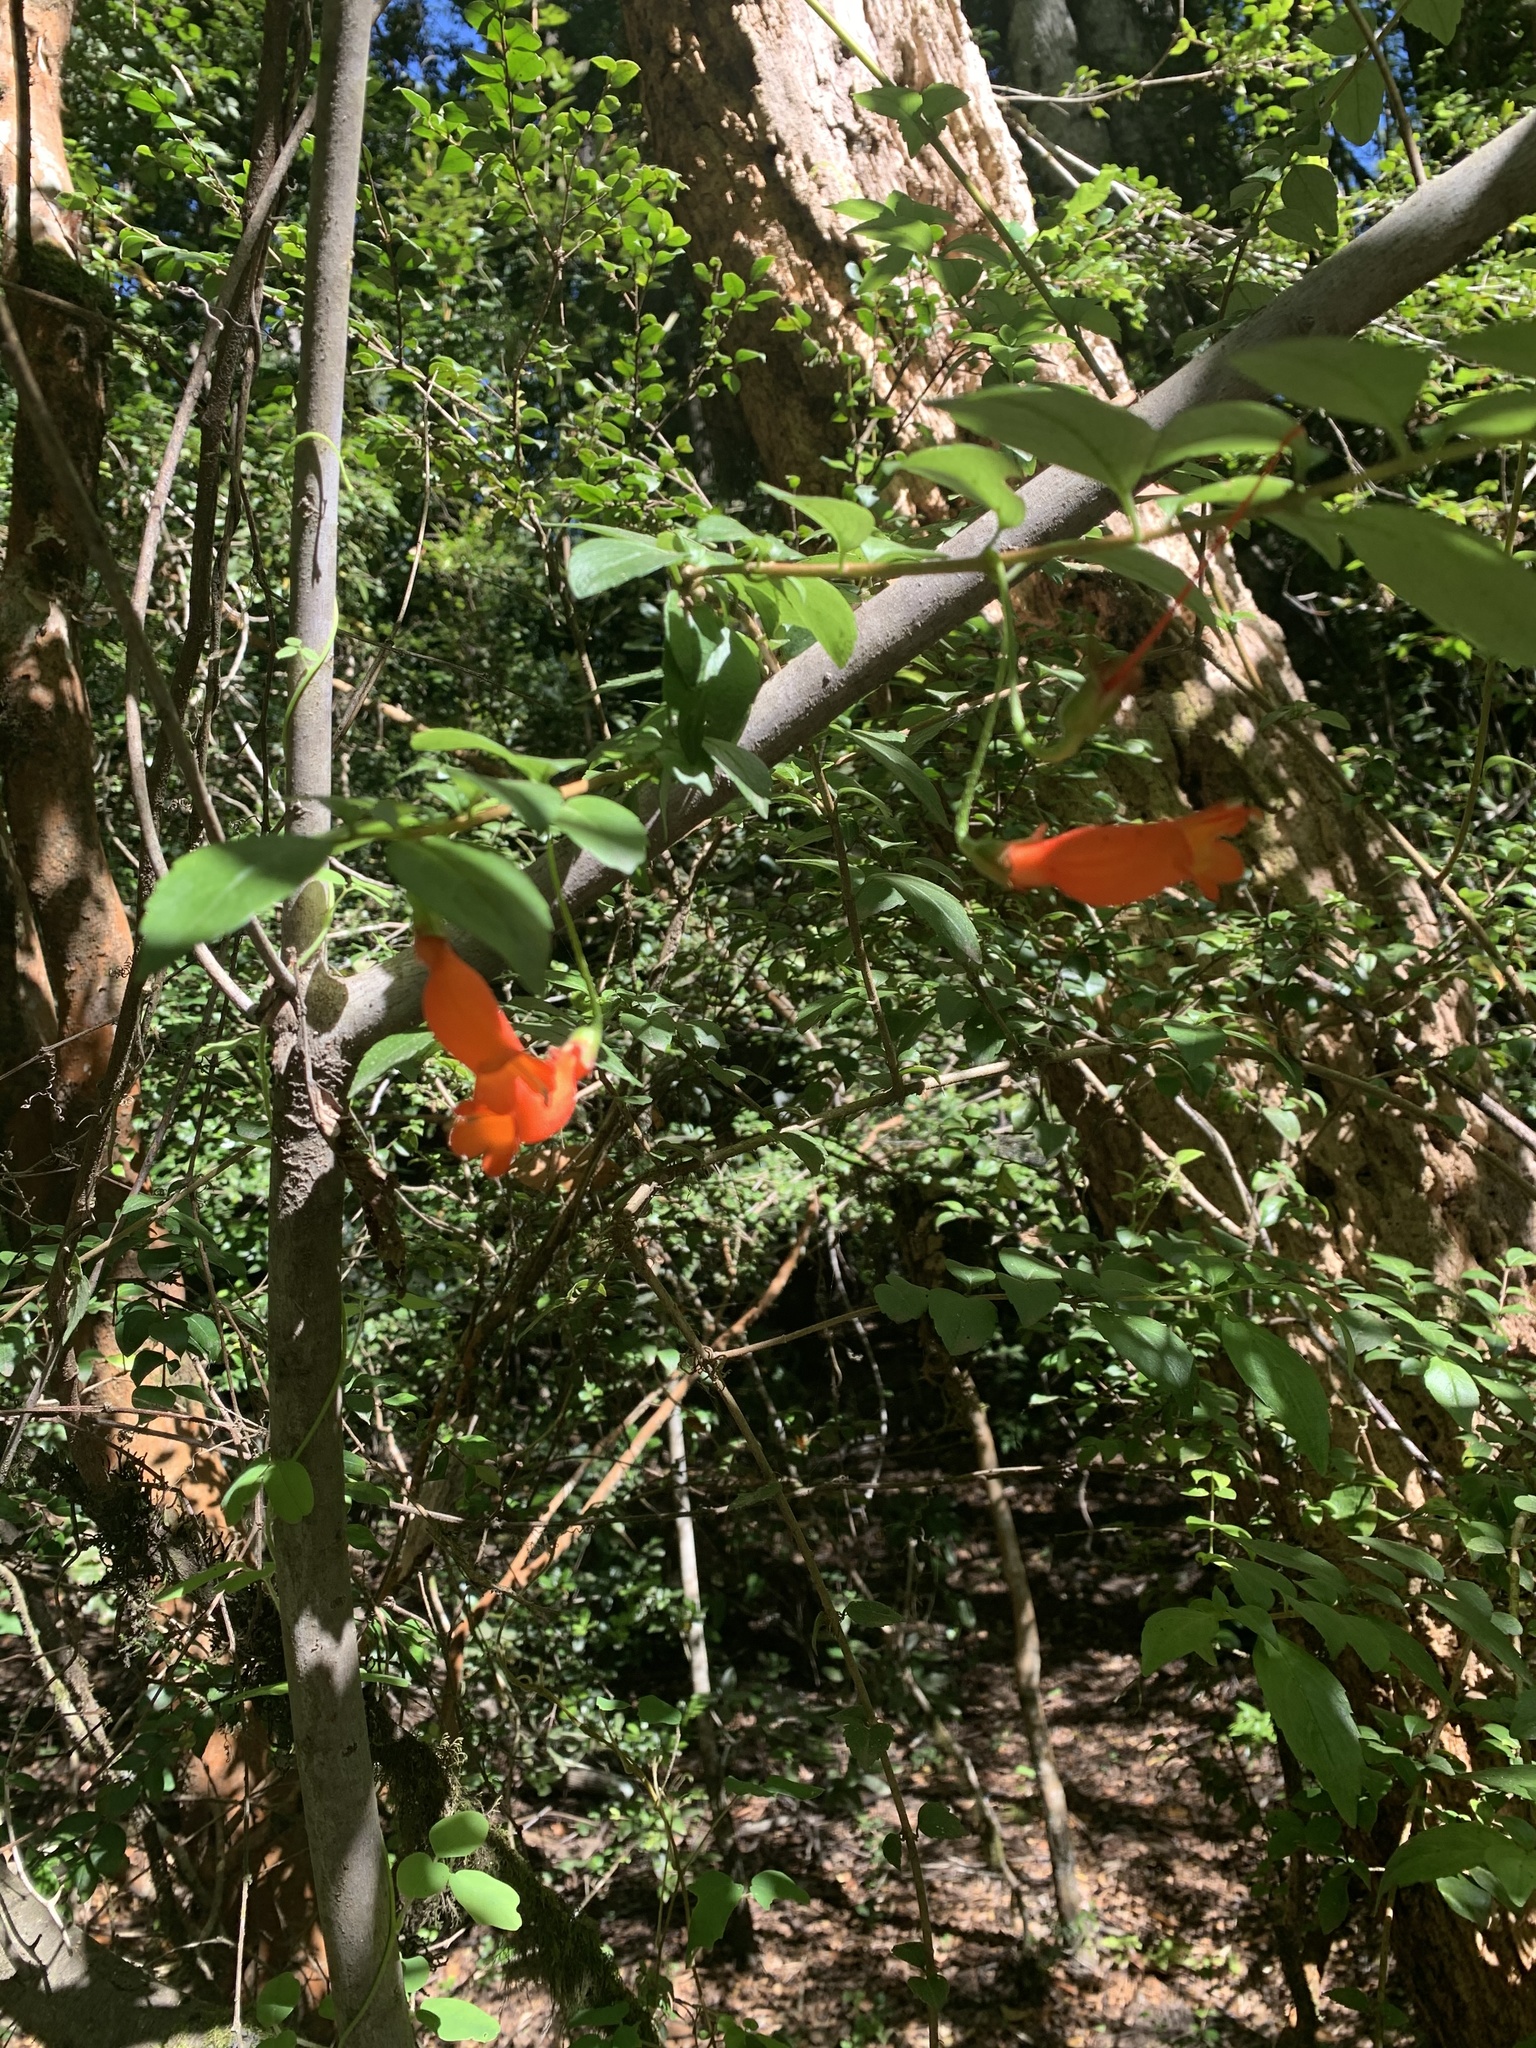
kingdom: Plantae
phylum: Tracheophyta
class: Magnoliopsida
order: Lamiales
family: Gesneriaceae
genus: Mitraria
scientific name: Mitraria coccinea
